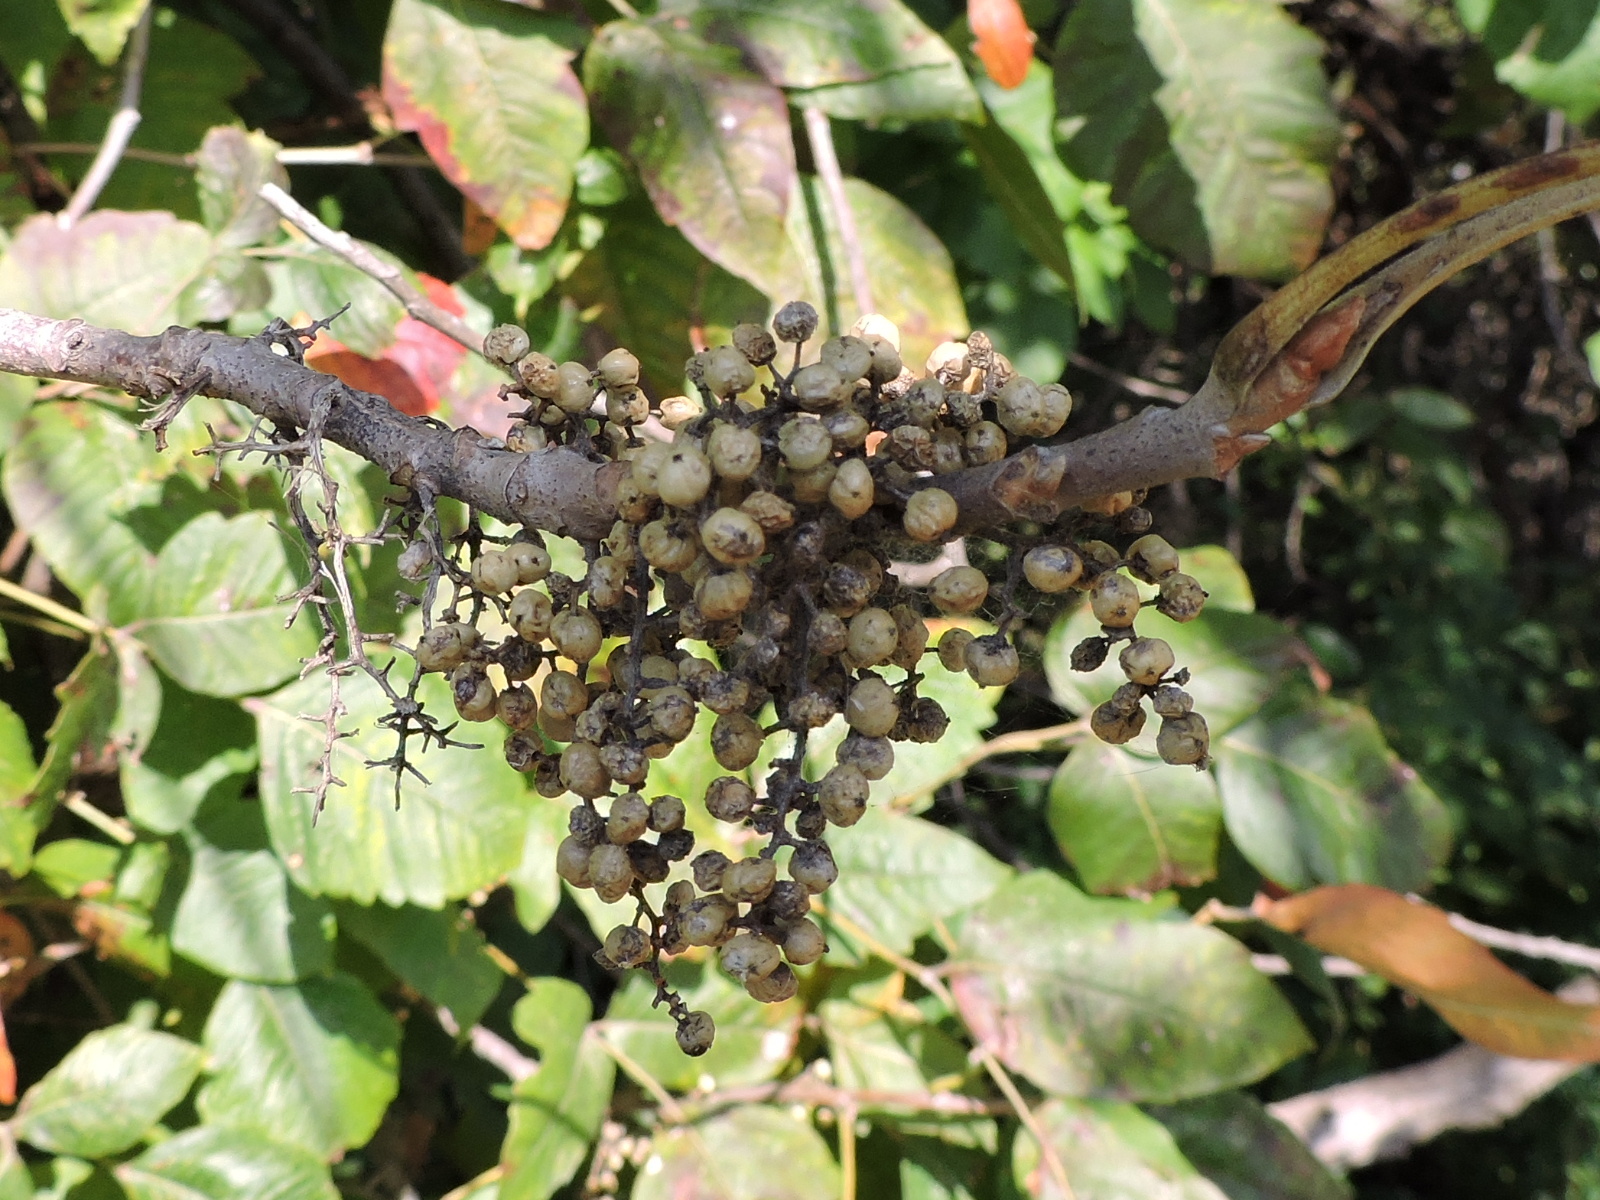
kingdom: Plantae
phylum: Tracheophyta
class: Magnoliopsida
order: Sapindales
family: Anacardiaceae
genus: Toxicodendron
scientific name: Toxicodendron radicans
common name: Poison ivy
